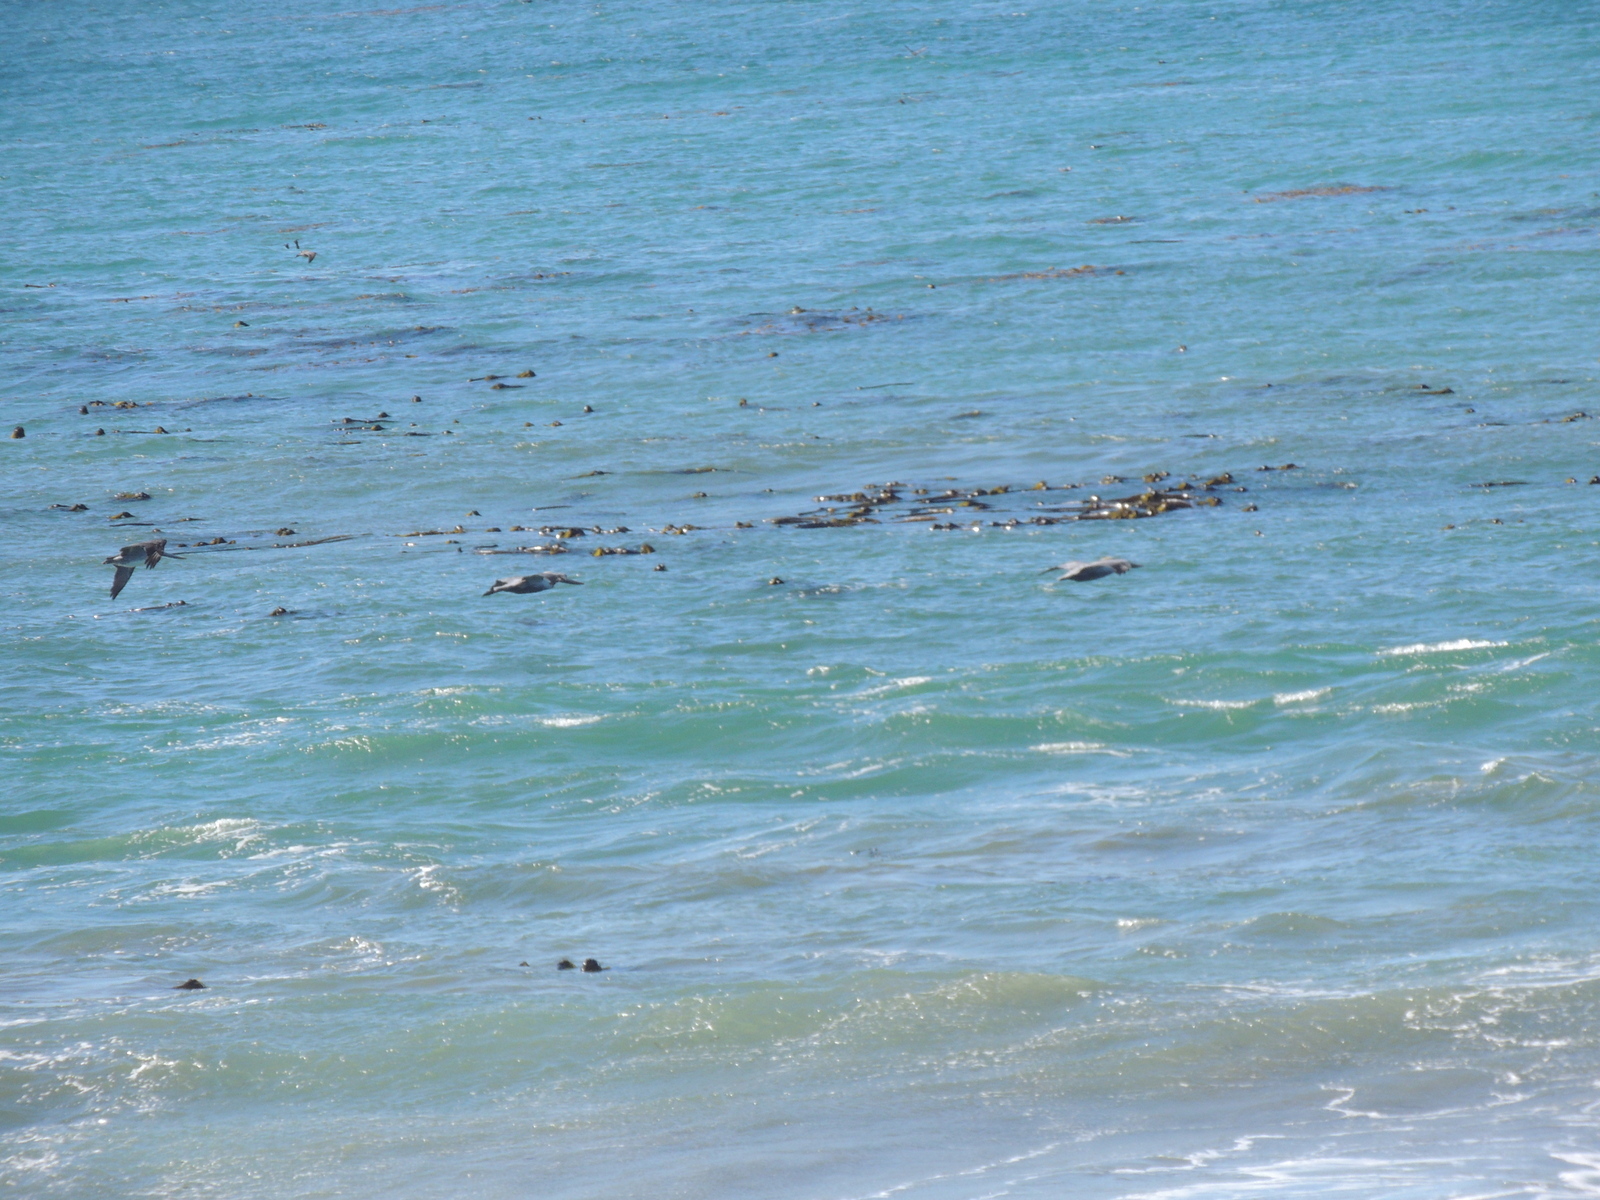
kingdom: Animalia
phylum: Chordata
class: Aves
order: Pelecaniformes
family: Pelecanidae
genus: Pelecanus
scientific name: Pelecanus occidentalis
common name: Brown pelican
